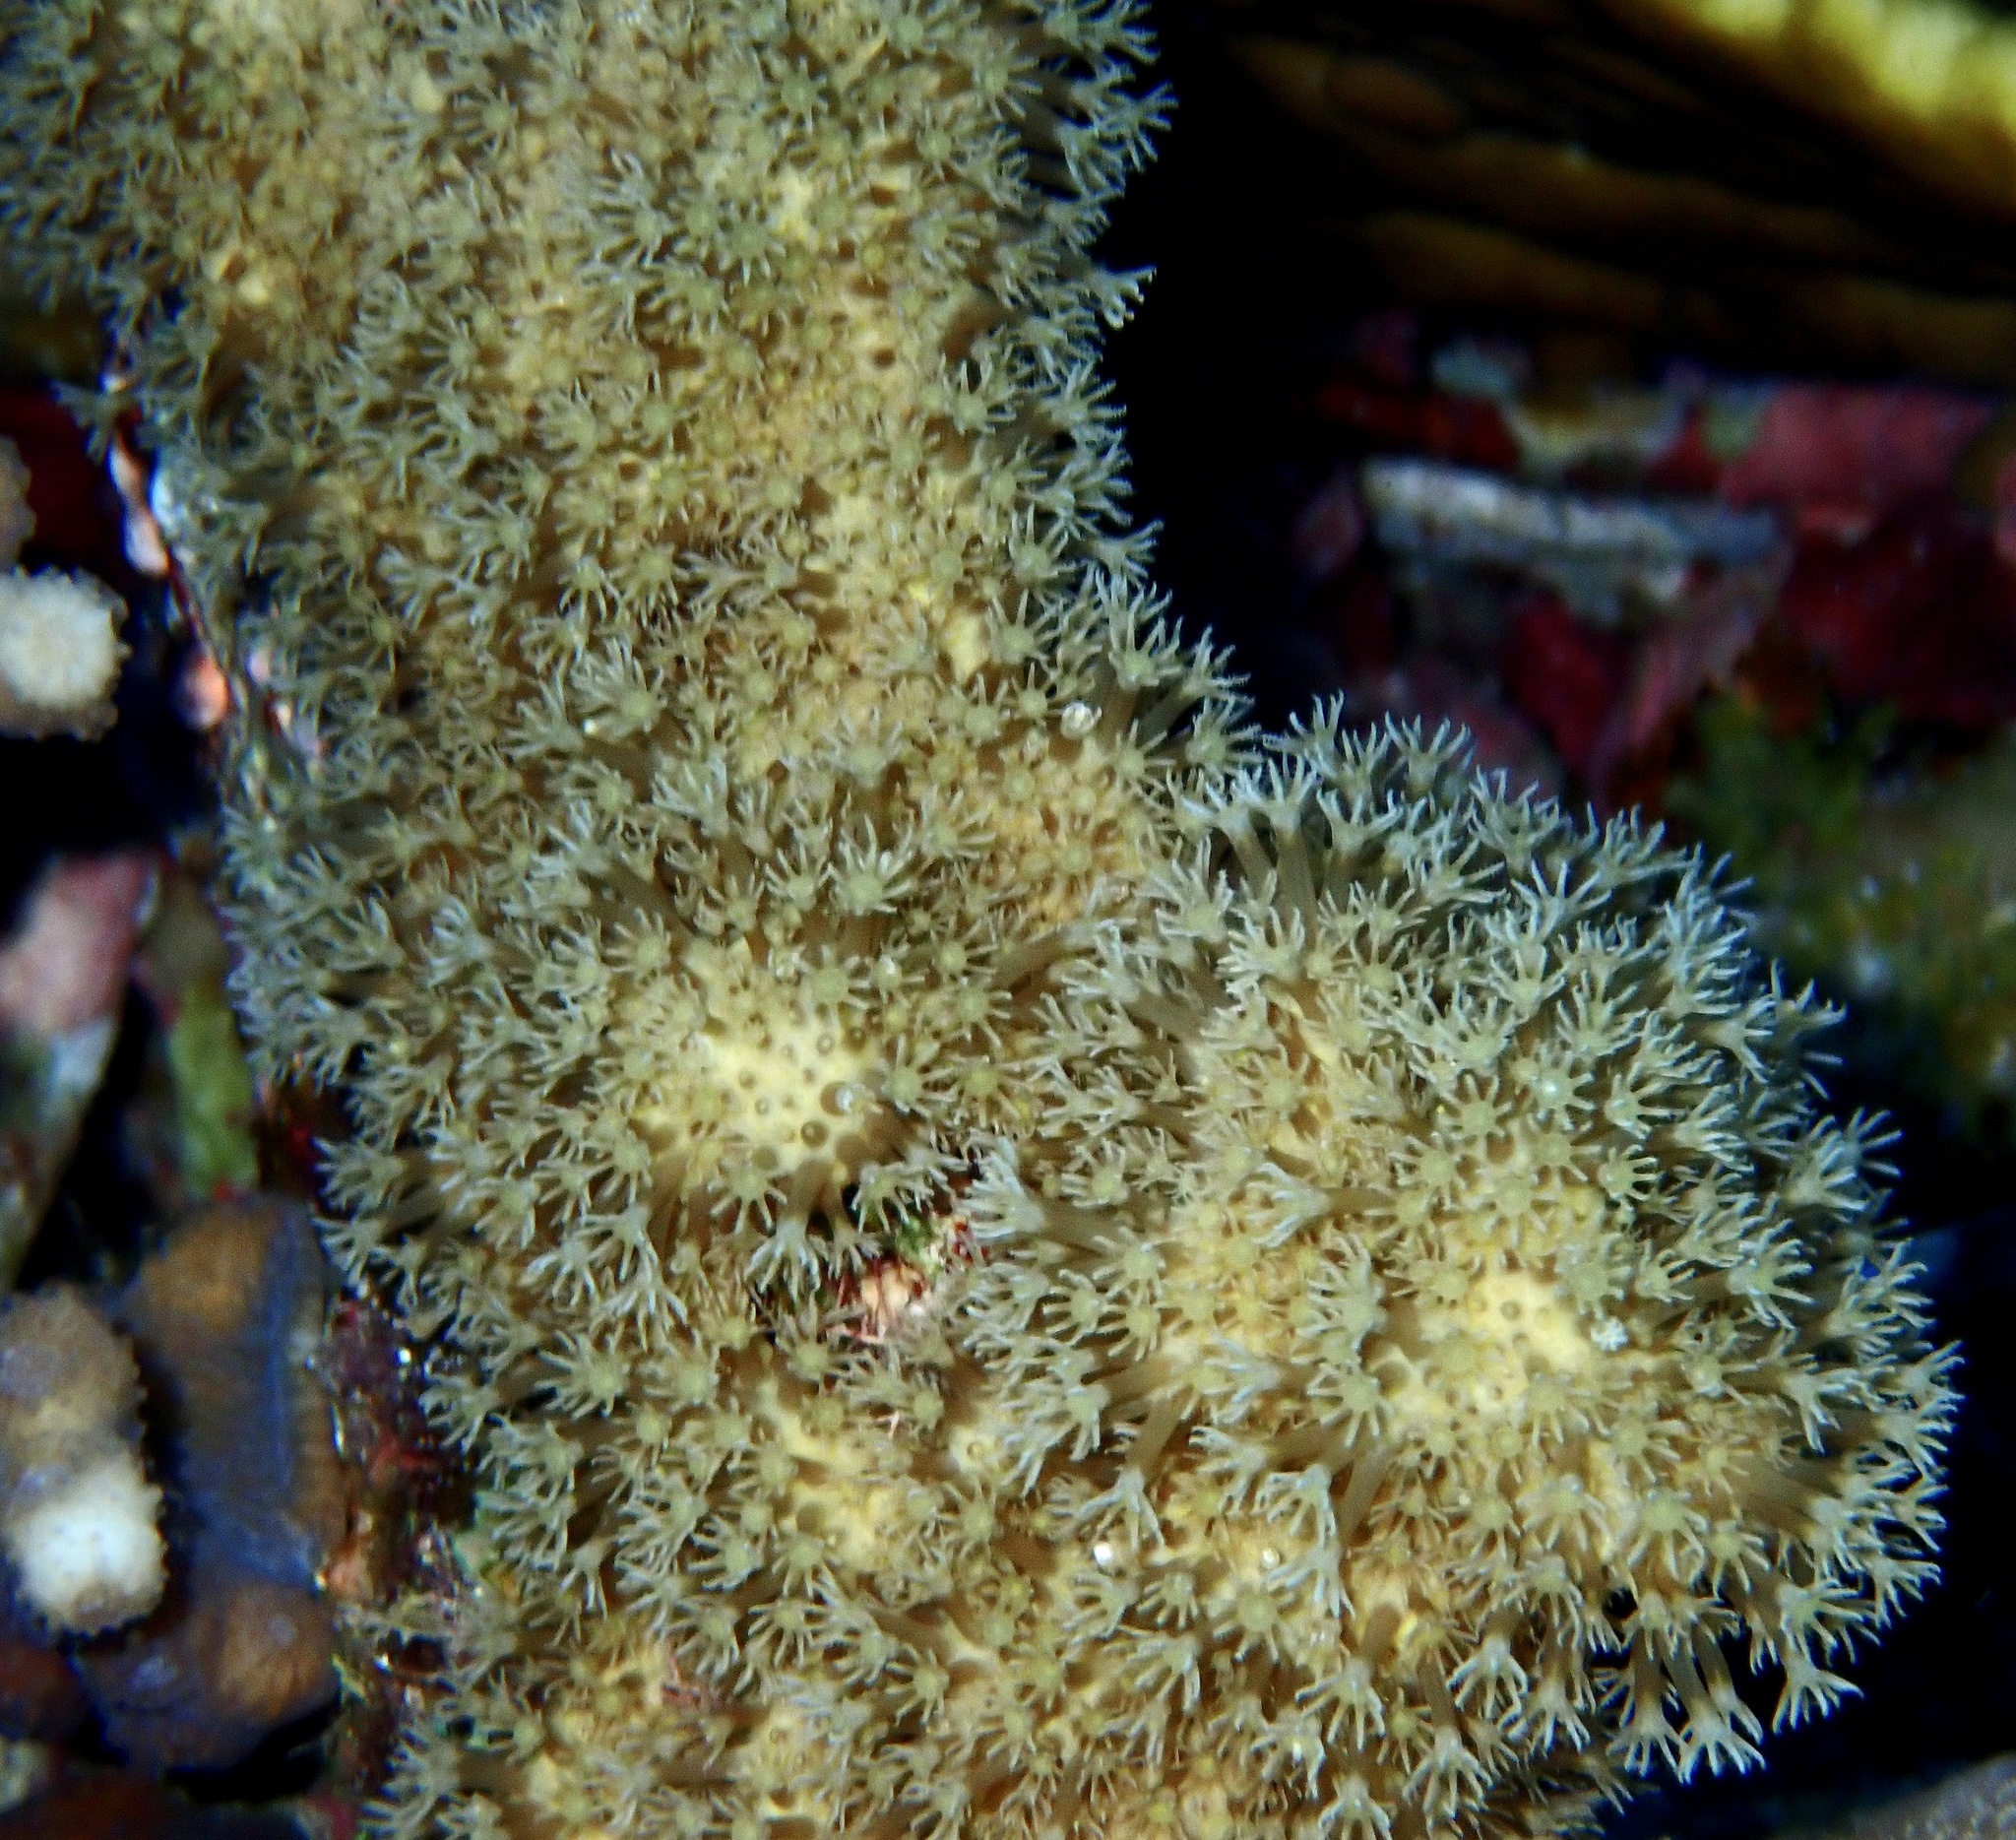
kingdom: Animalia
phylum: Cnidaria
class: Anthozoa
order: Malacalcyonacea
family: Lemnaliadae
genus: Rhytisma
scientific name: Rhytisma fulvum
